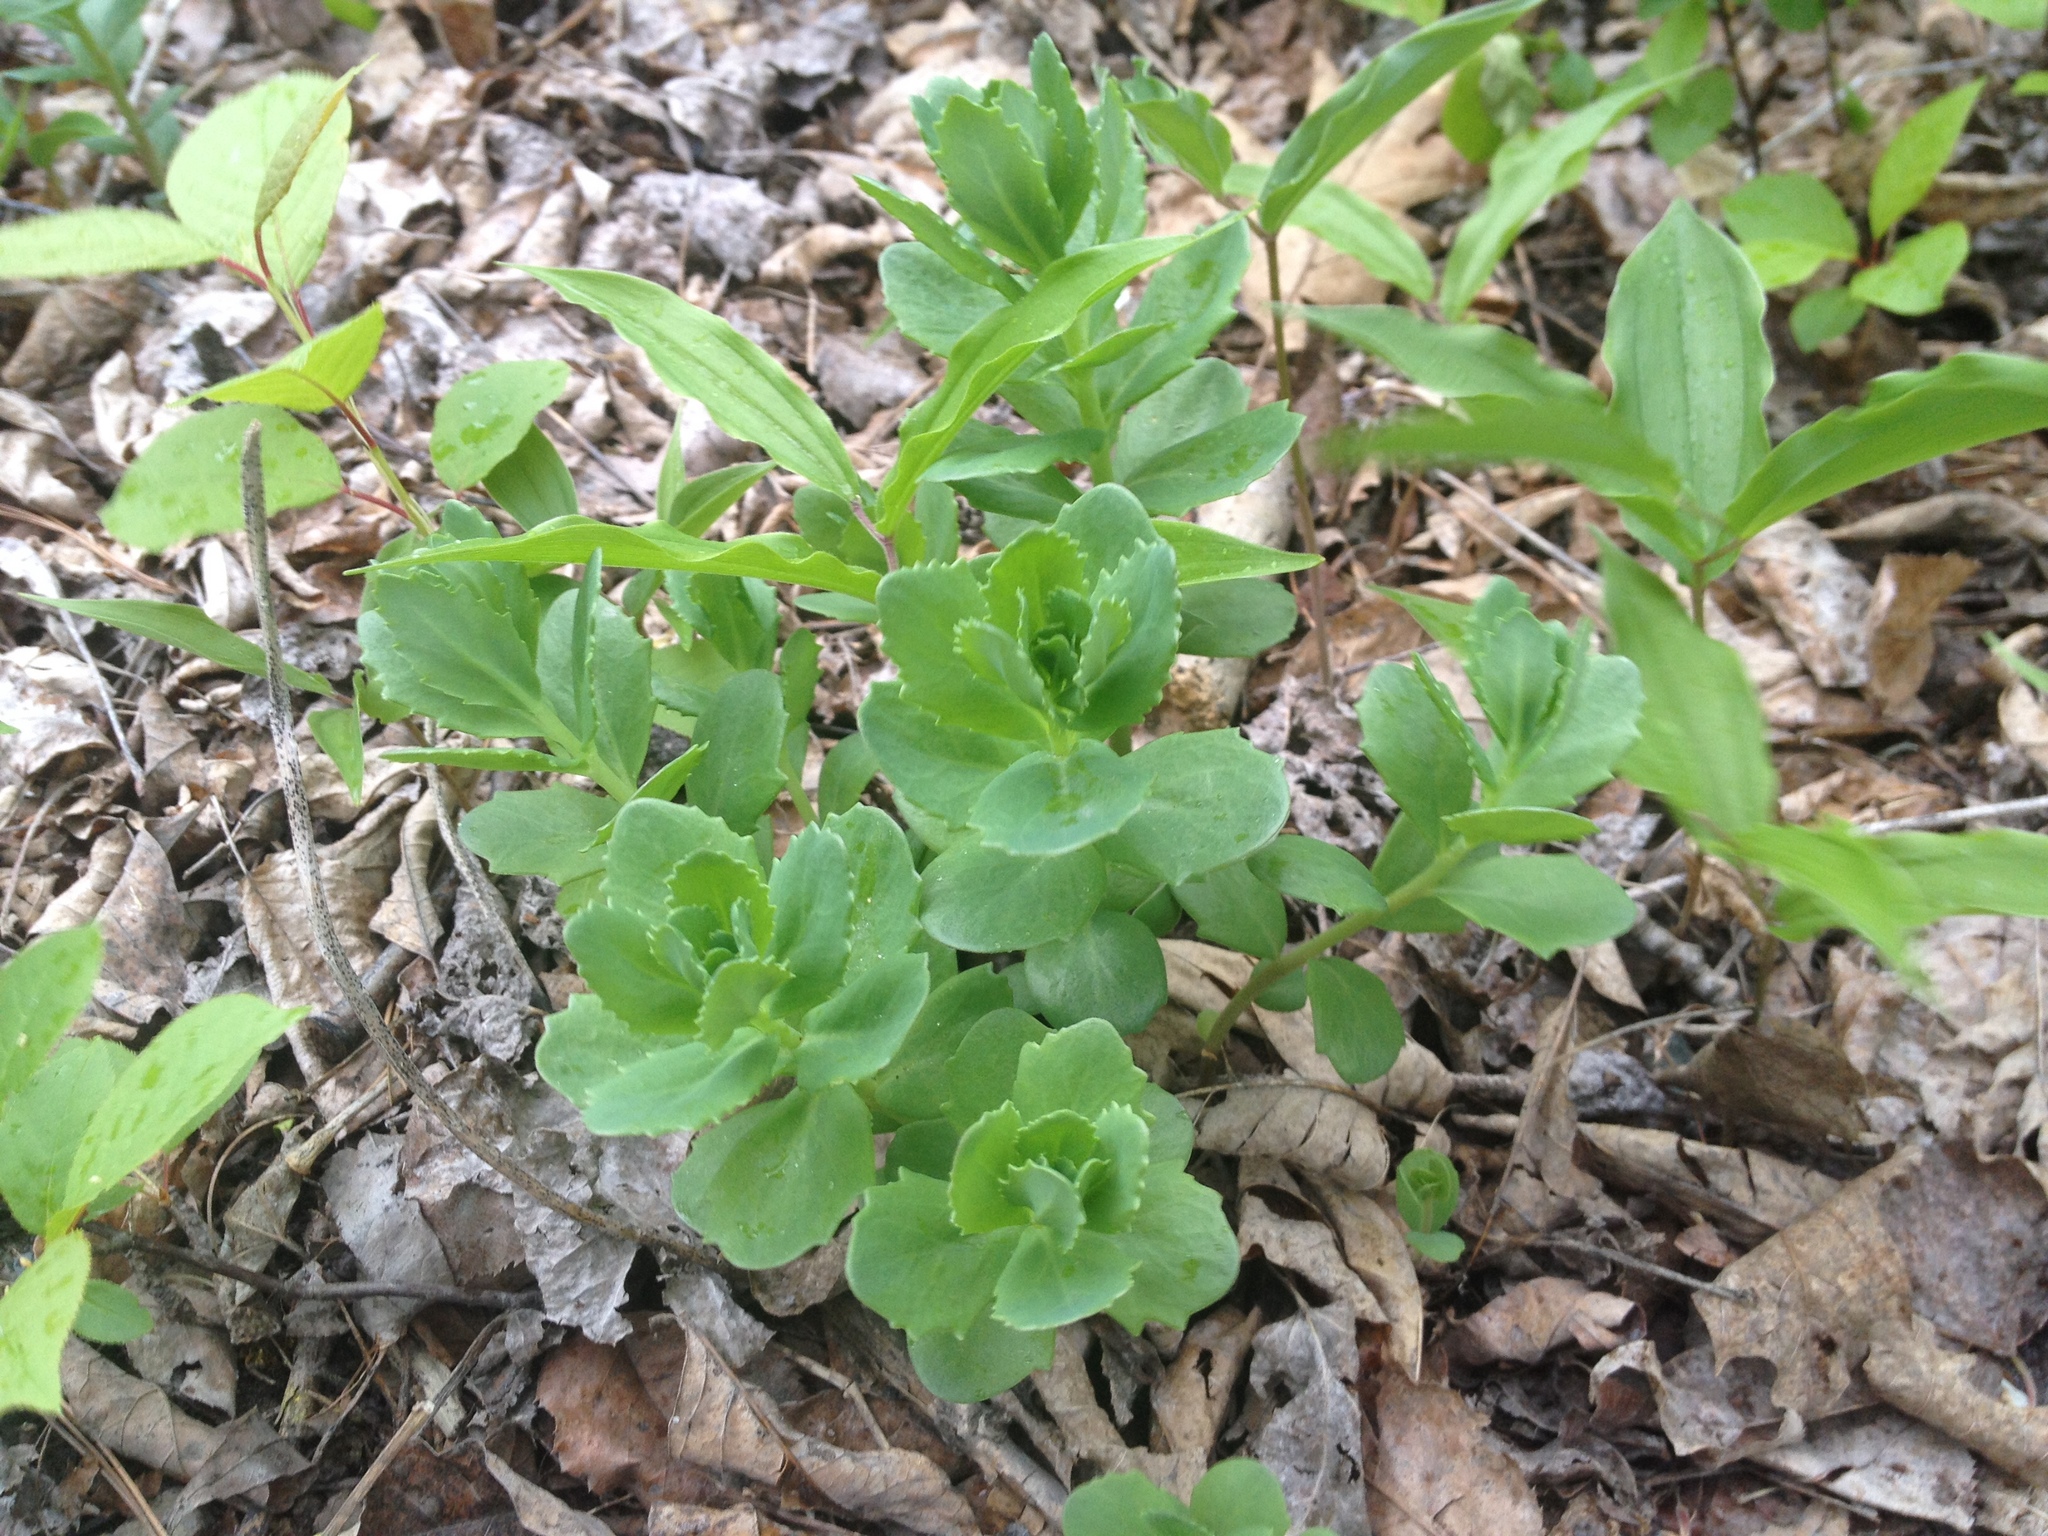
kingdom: Plantae
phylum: Tracheophyta
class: Magnoliopsida
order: Saxifragales
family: Crassulaceae
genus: Hylotelephium
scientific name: Hylotelephium telephium
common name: Live-forever
